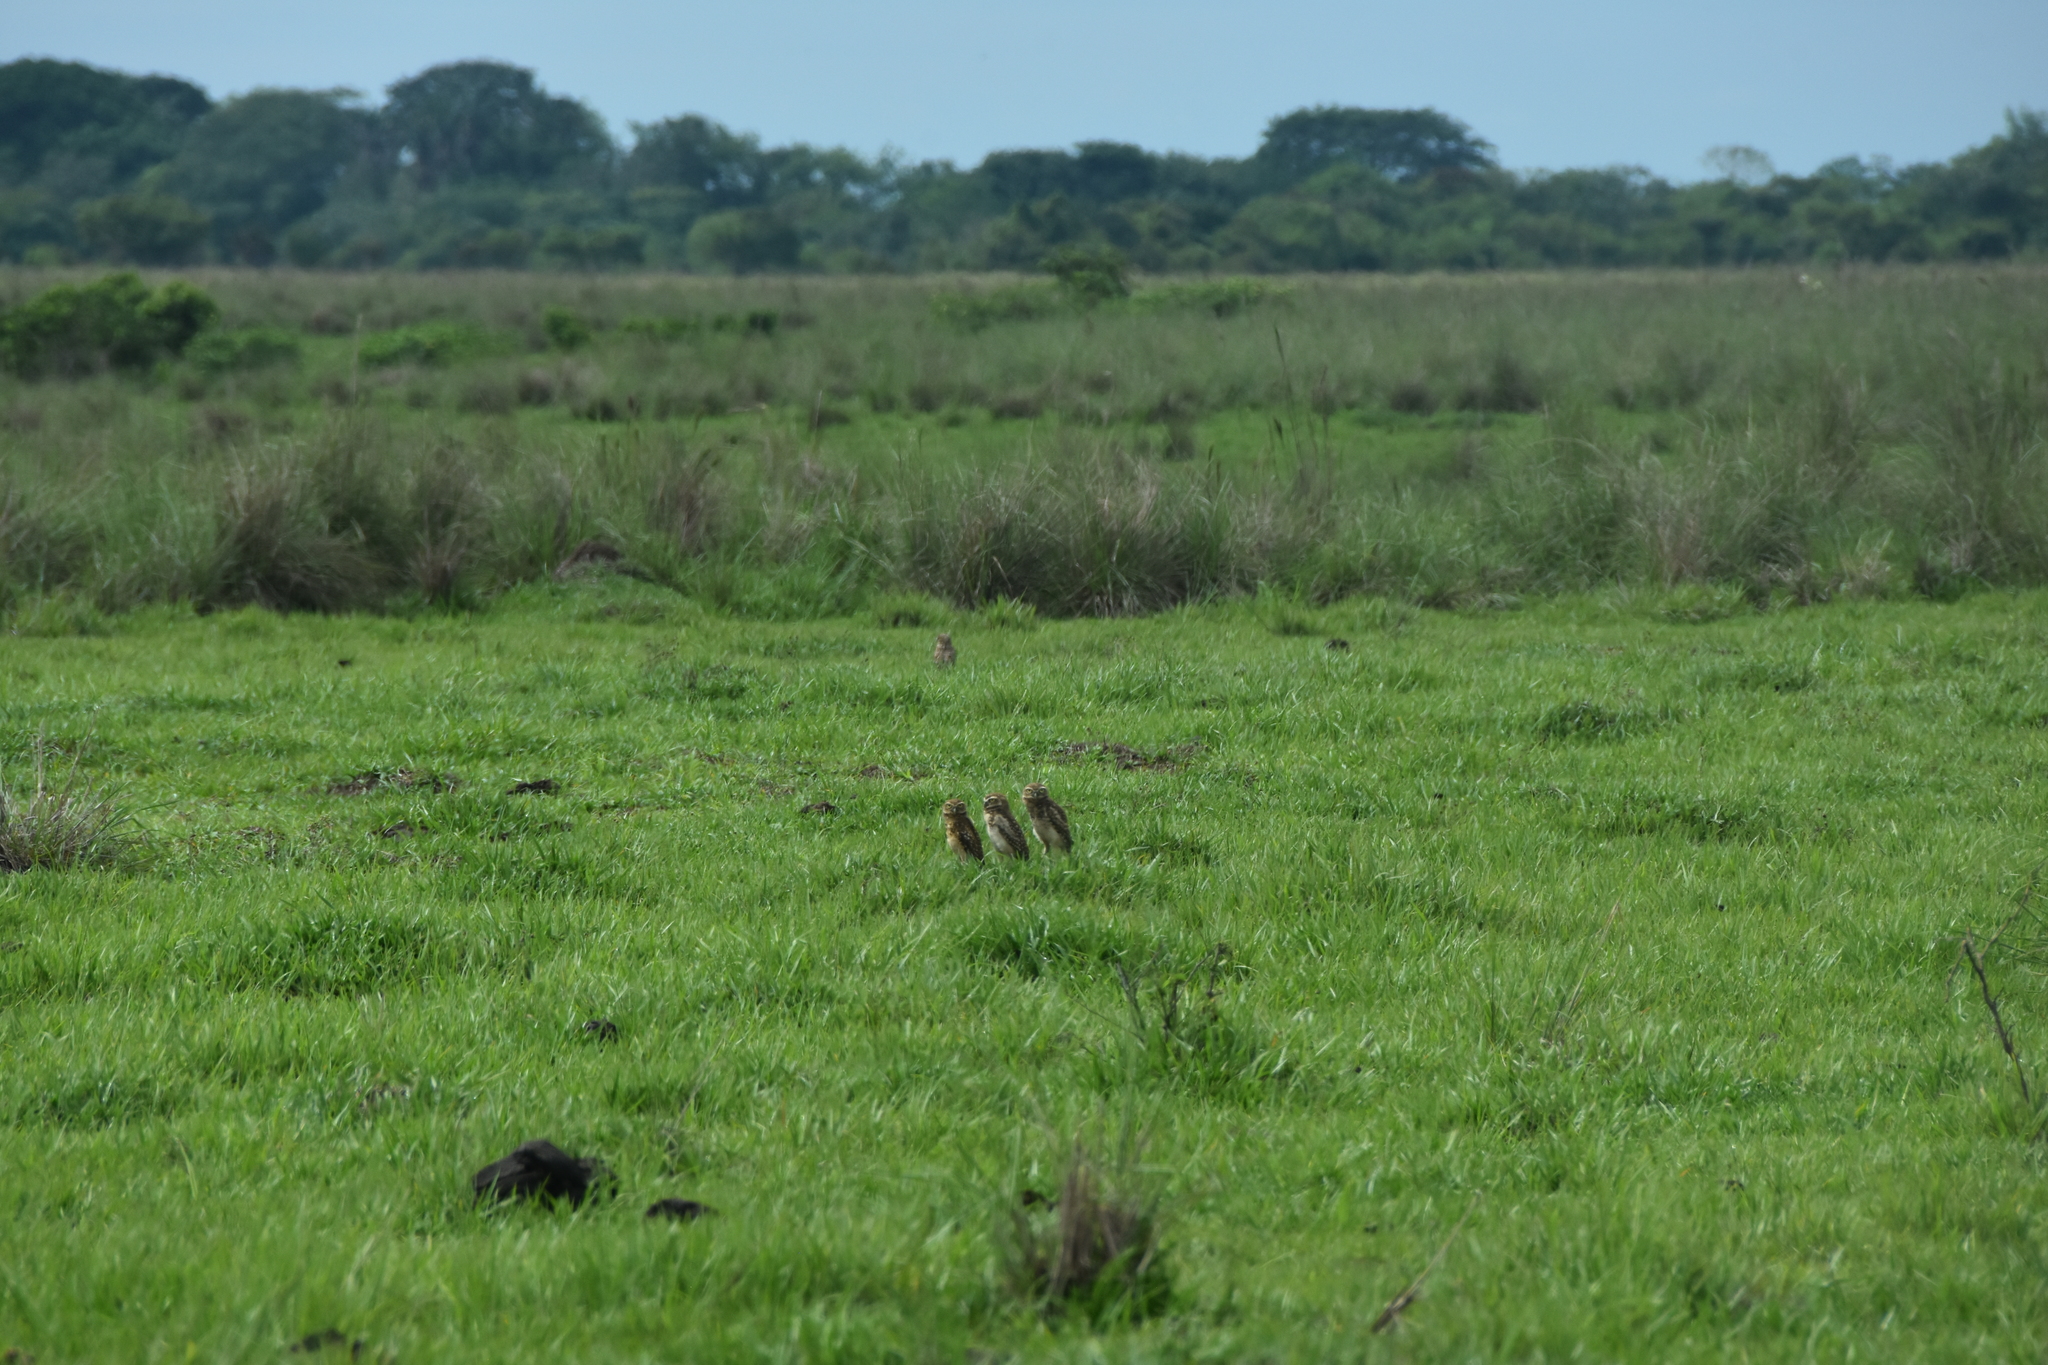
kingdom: Animalia
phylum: Chordata
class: Aves
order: Strigiformes
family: Strigidae
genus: Athene
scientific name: Athene cunicularia
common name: Burrowing owl
